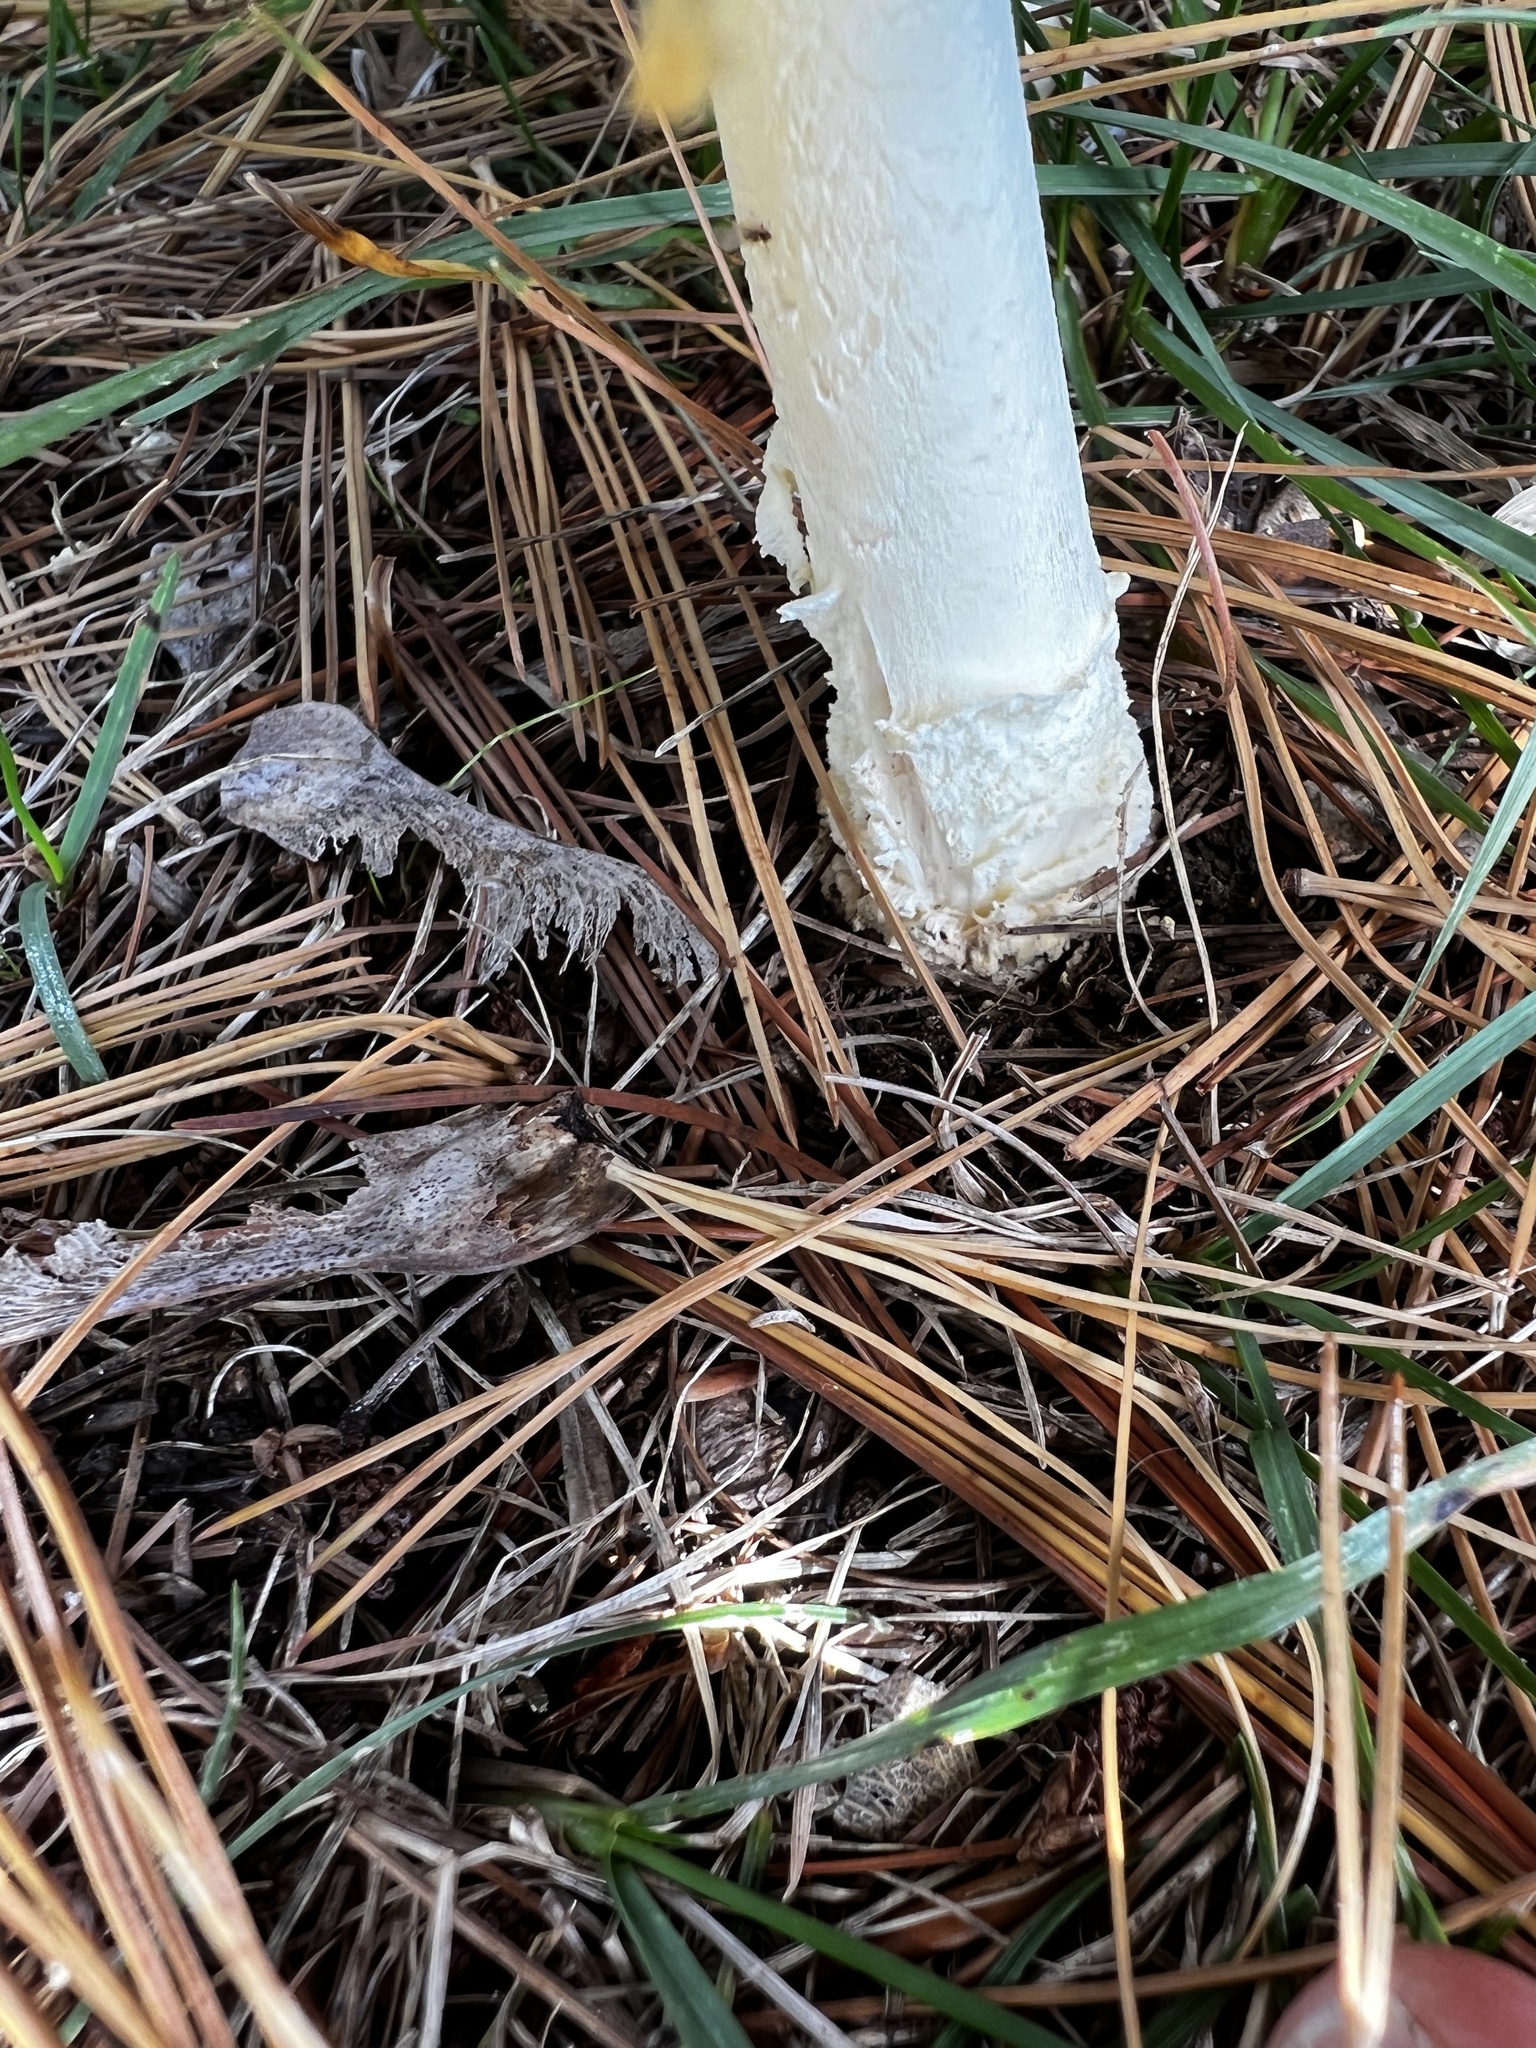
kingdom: Fungi
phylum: Basidiomycota
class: Agaricomycetes
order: Agaricales
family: Amanitaceae
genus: Amanita
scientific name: Amanita muscaria
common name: Fly agaric
